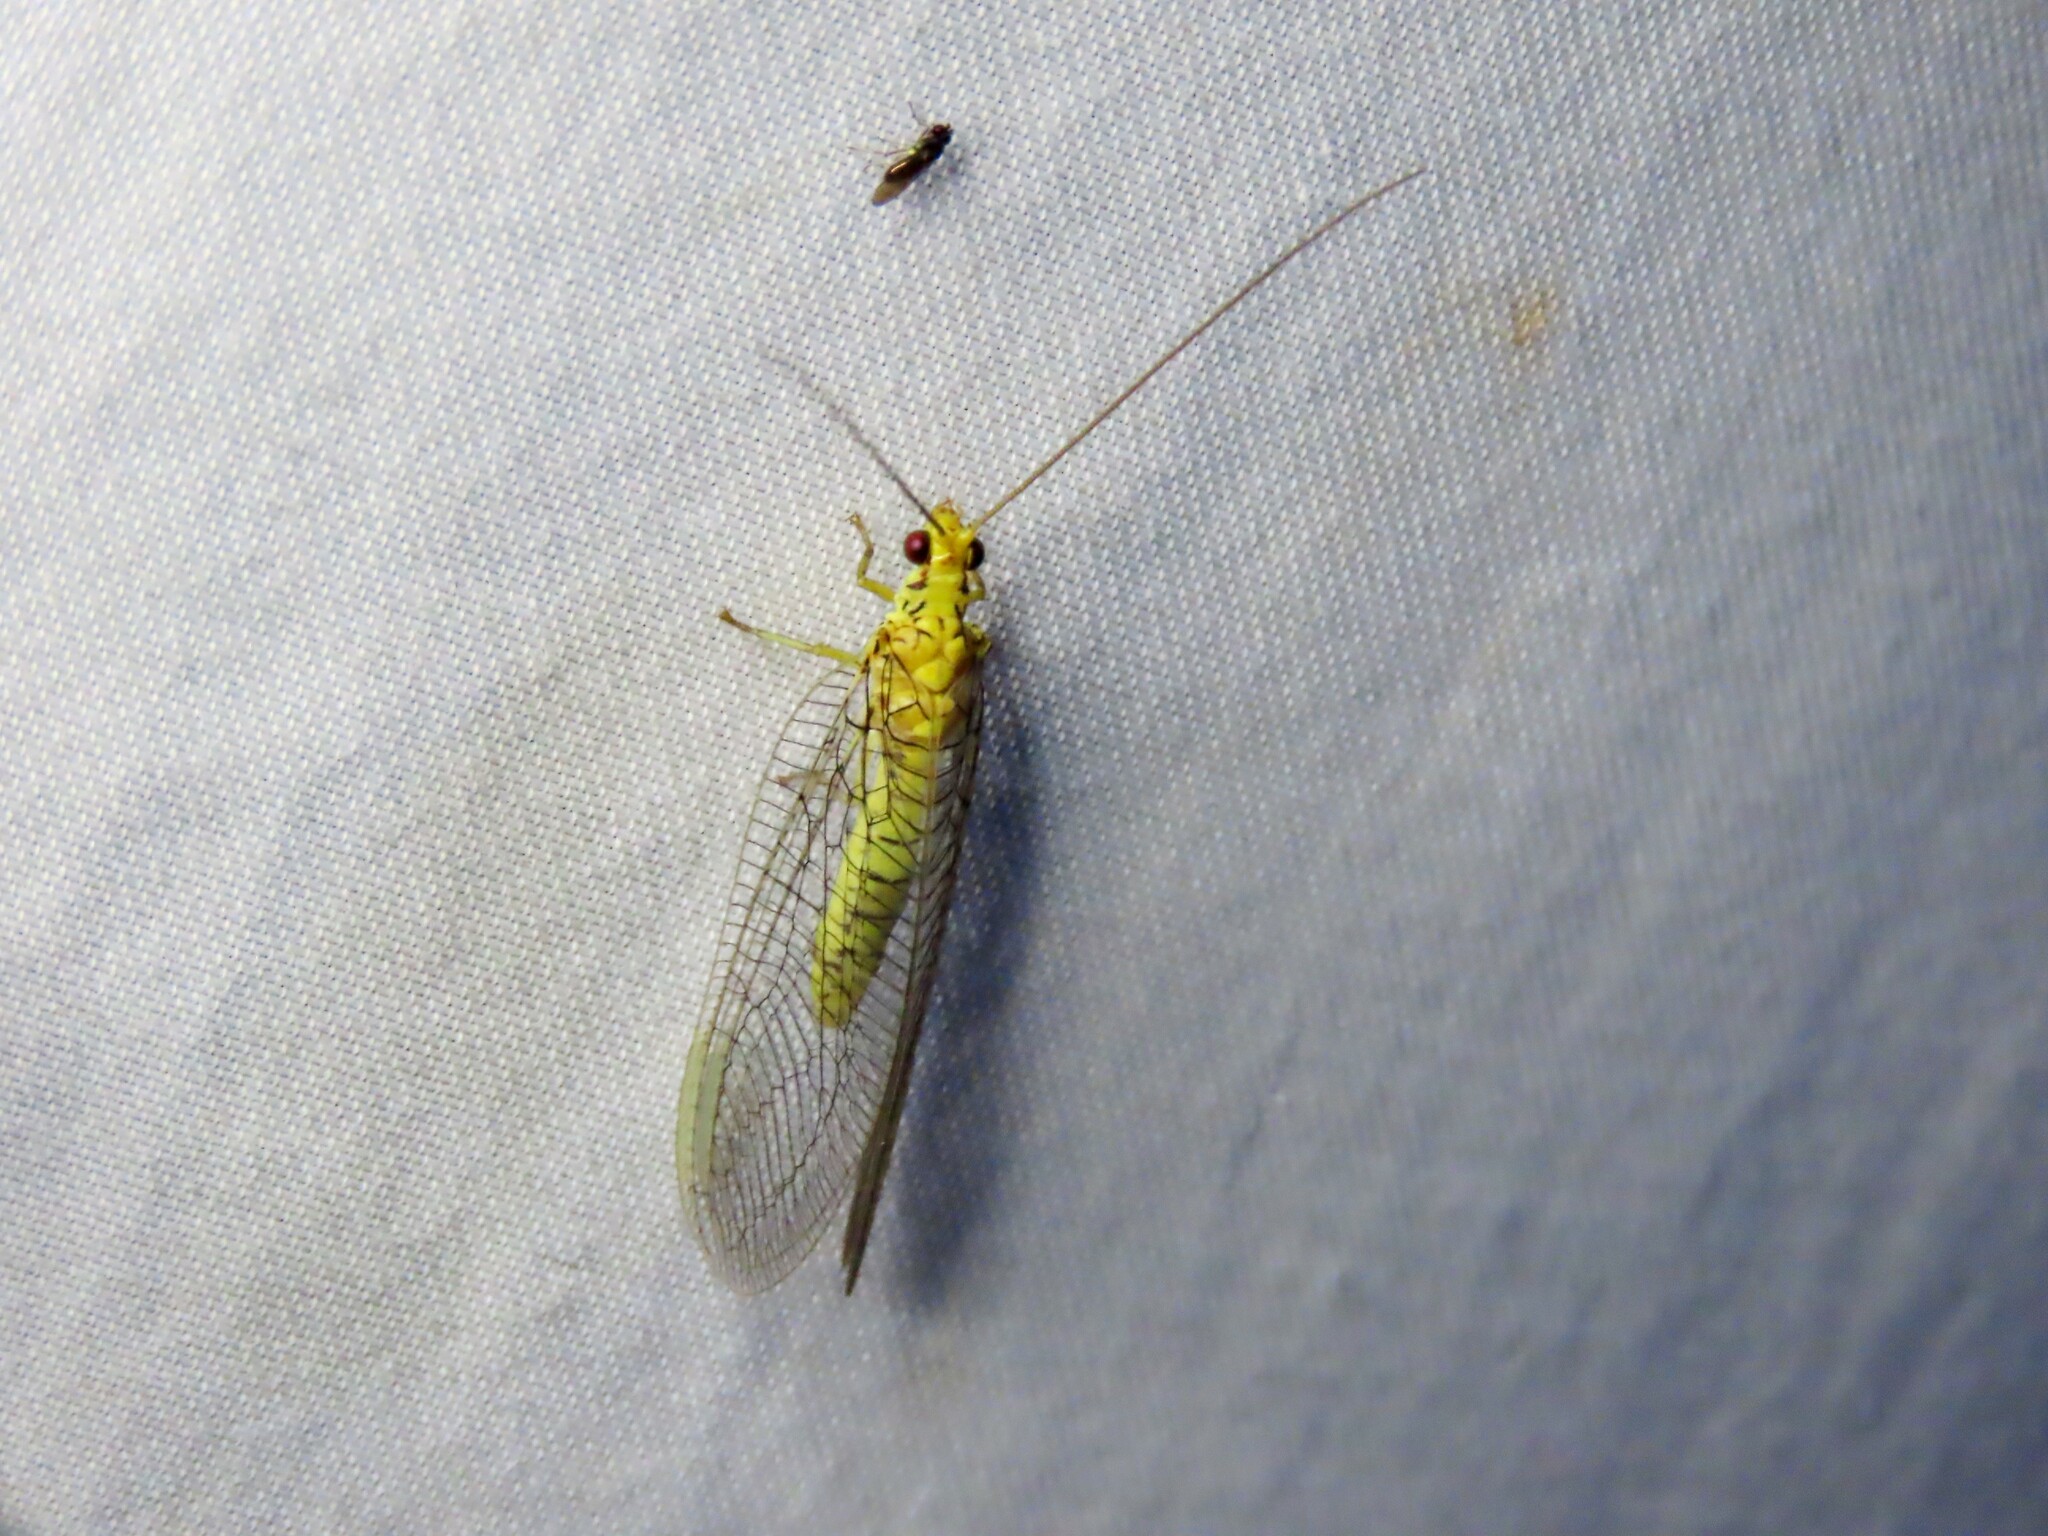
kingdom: Animalia
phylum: Arthropoda
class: Insecta
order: Neuroptera
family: Chrysopidae
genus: Italochrysa
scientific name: Italochrysa insignis
